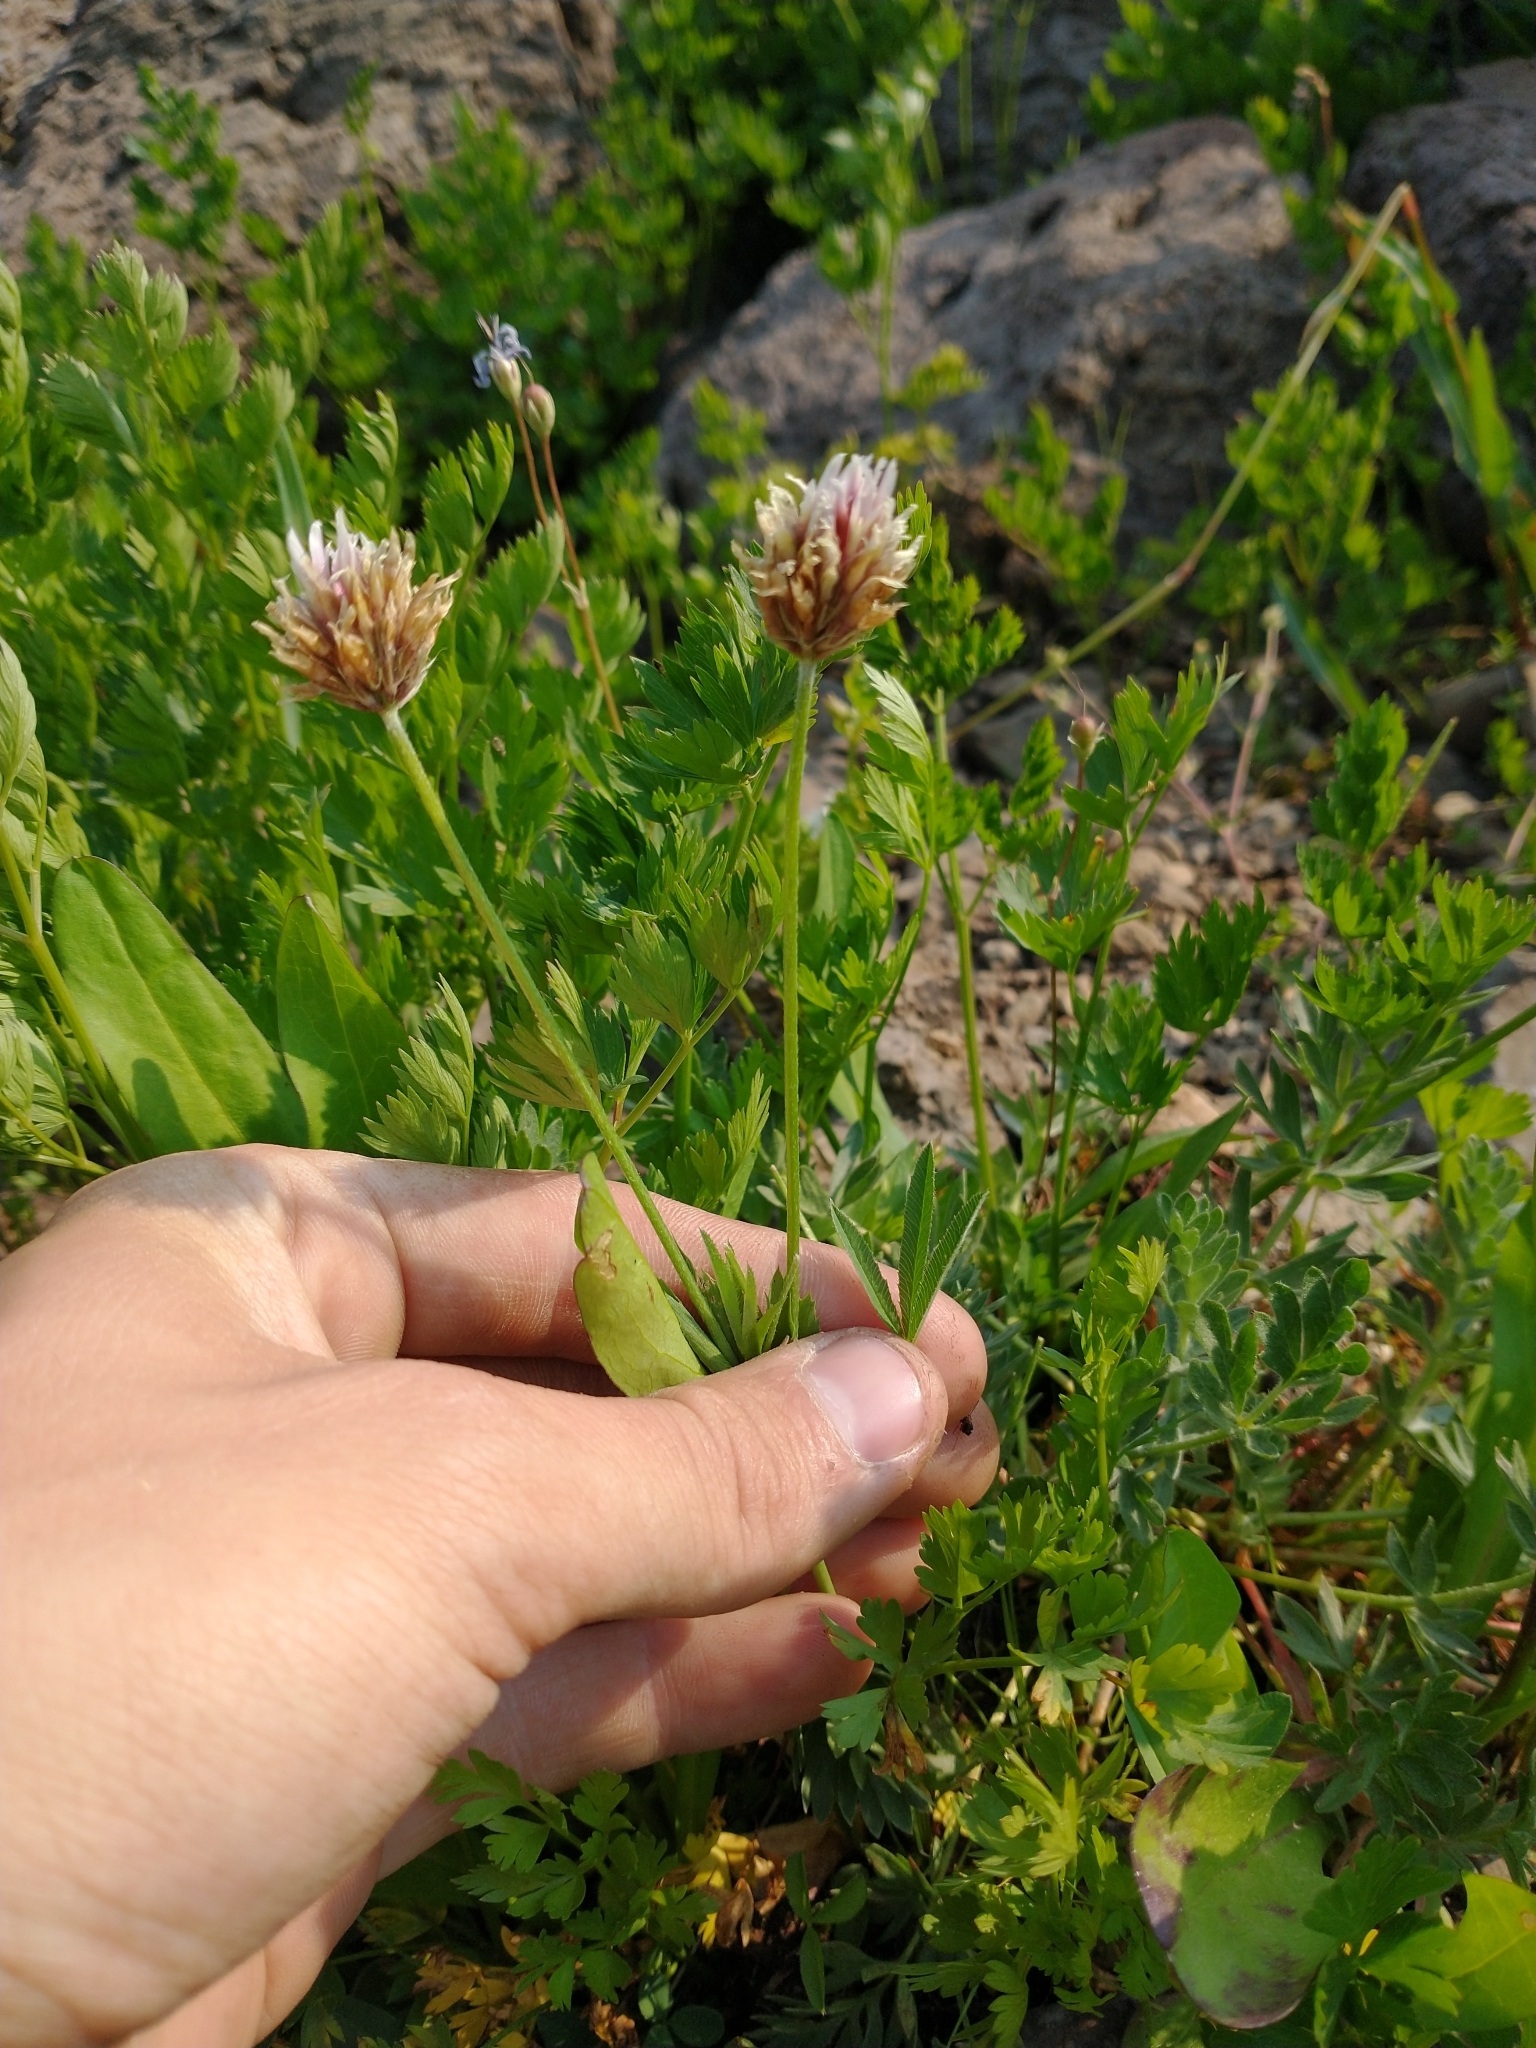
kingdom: Plantae
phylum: Tracheophyta
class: Magnoliopsida
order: Fabales
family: Fabaceae
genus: Trifolium
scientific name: Trifolium longipes
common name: Long-stalk clover
